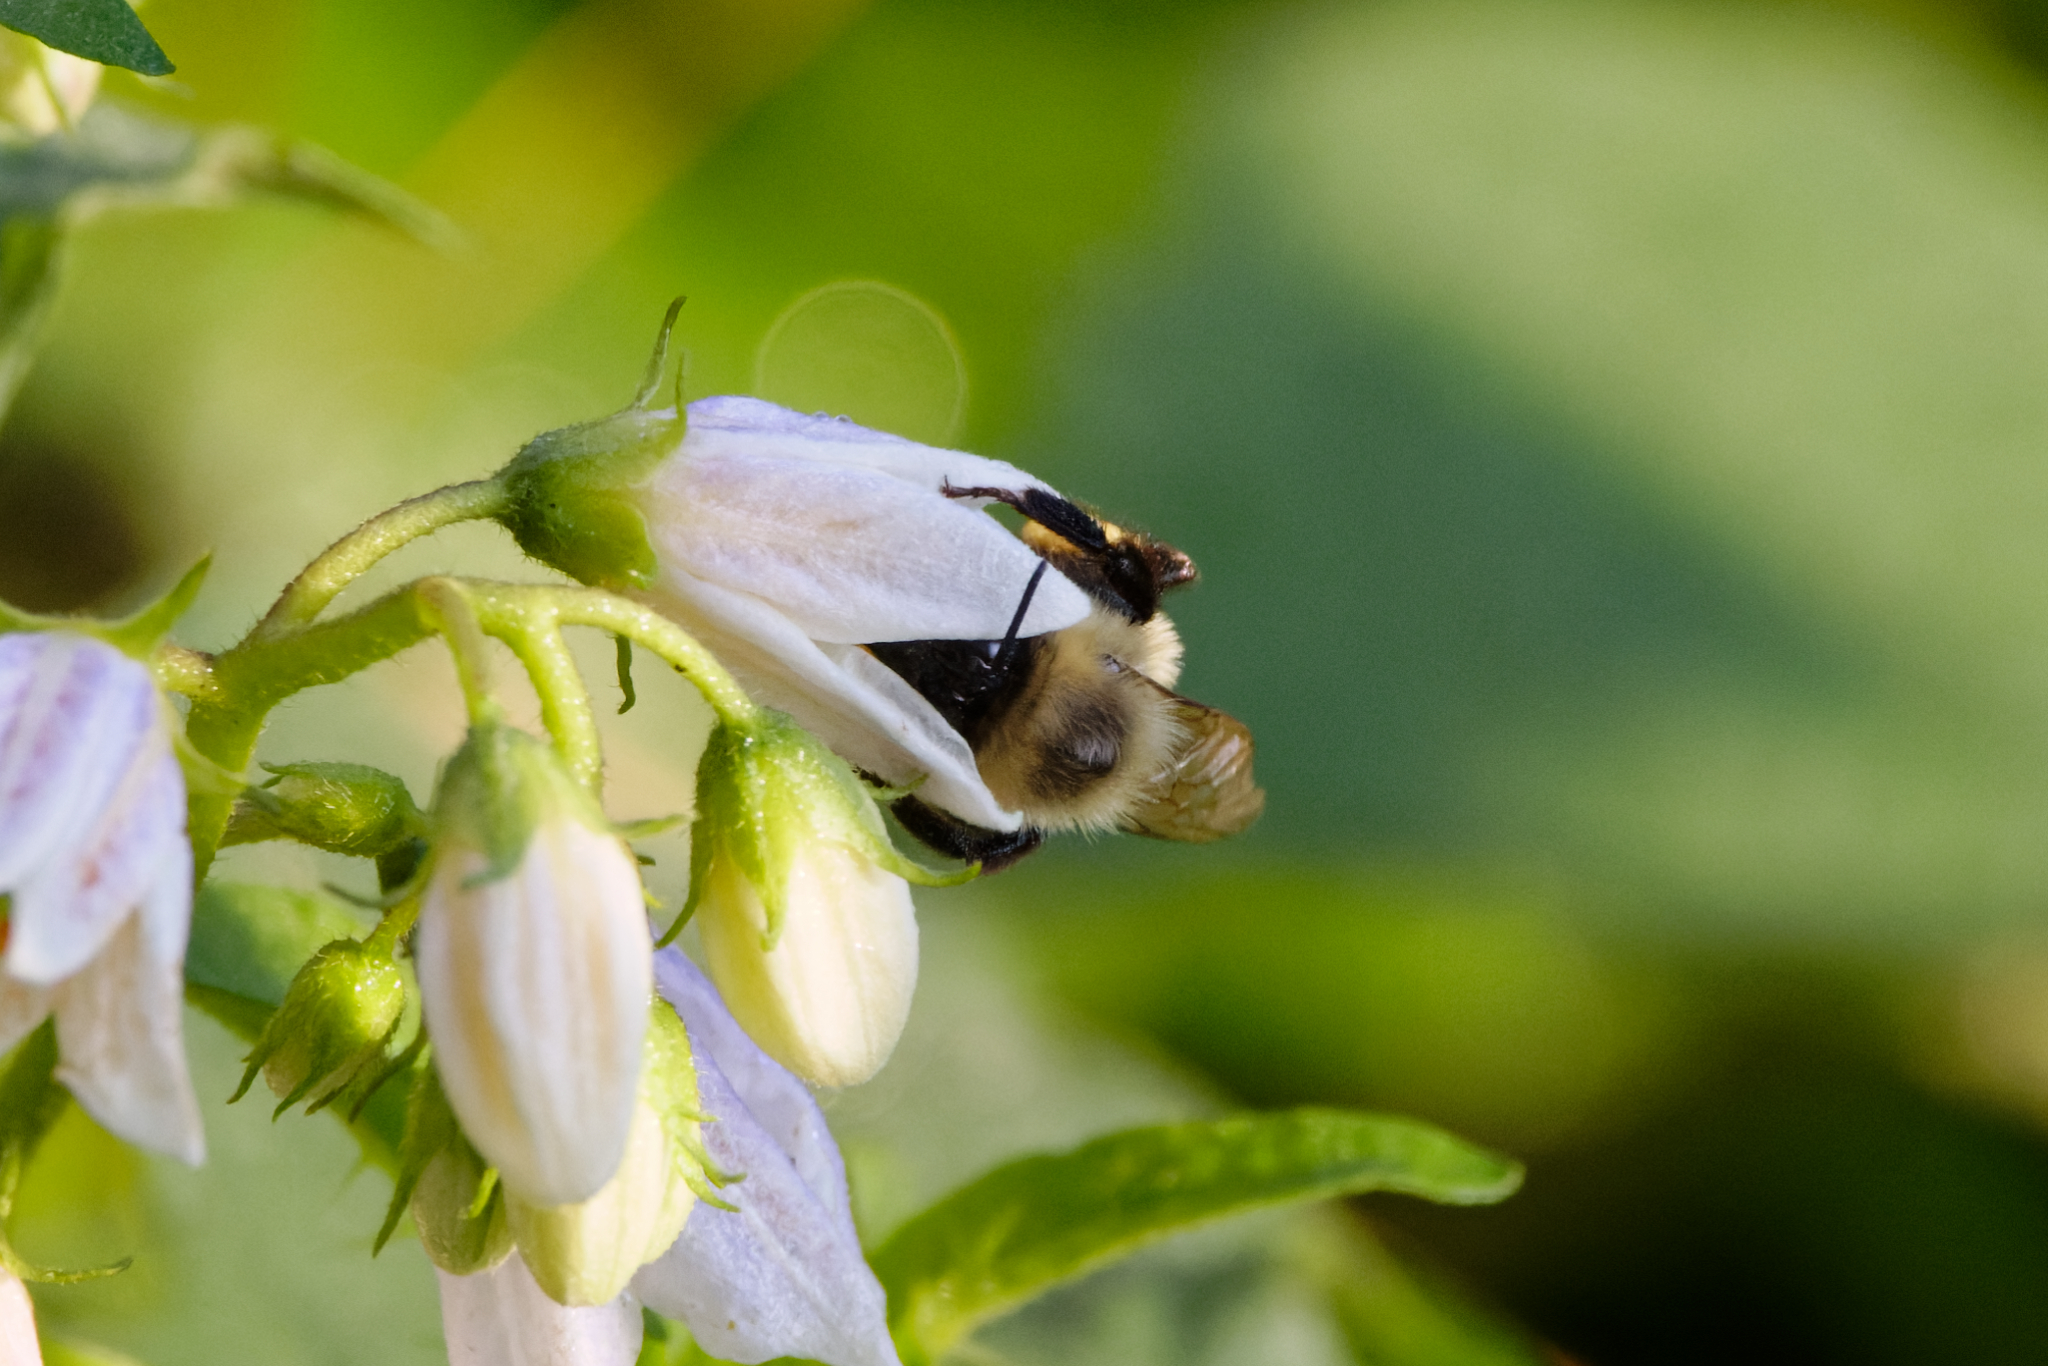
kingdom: Animalia
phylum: Arthropoda
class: Insecta
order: Hymenoptera
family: Apidae
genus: Bombus
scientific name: Bombus impatiens
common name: Common eastern bumble bee
